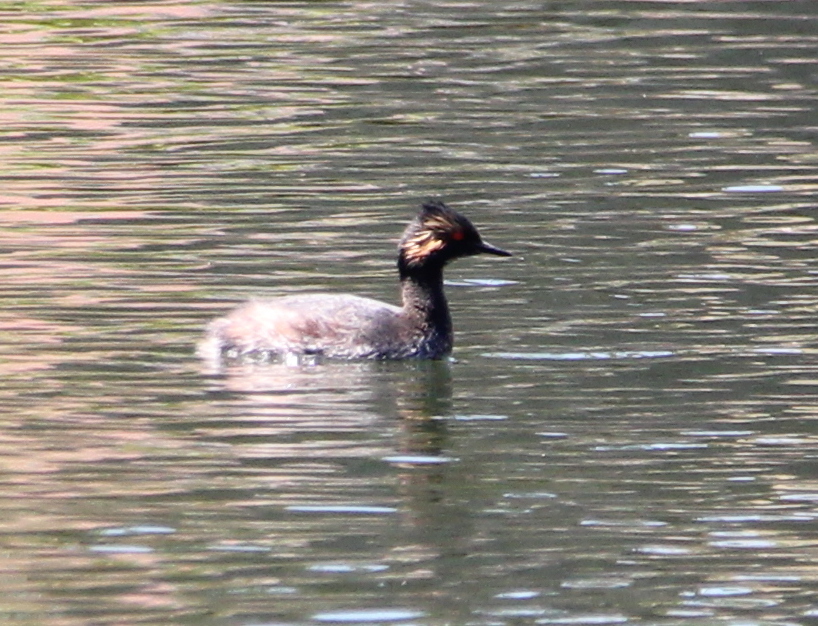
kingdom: Animalia
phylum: Chordata
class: Aves
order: Podicipediformes
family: Podicipedidae
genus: Podiceps
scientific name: Podiceps nigricollis
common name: Black-necked grebe
